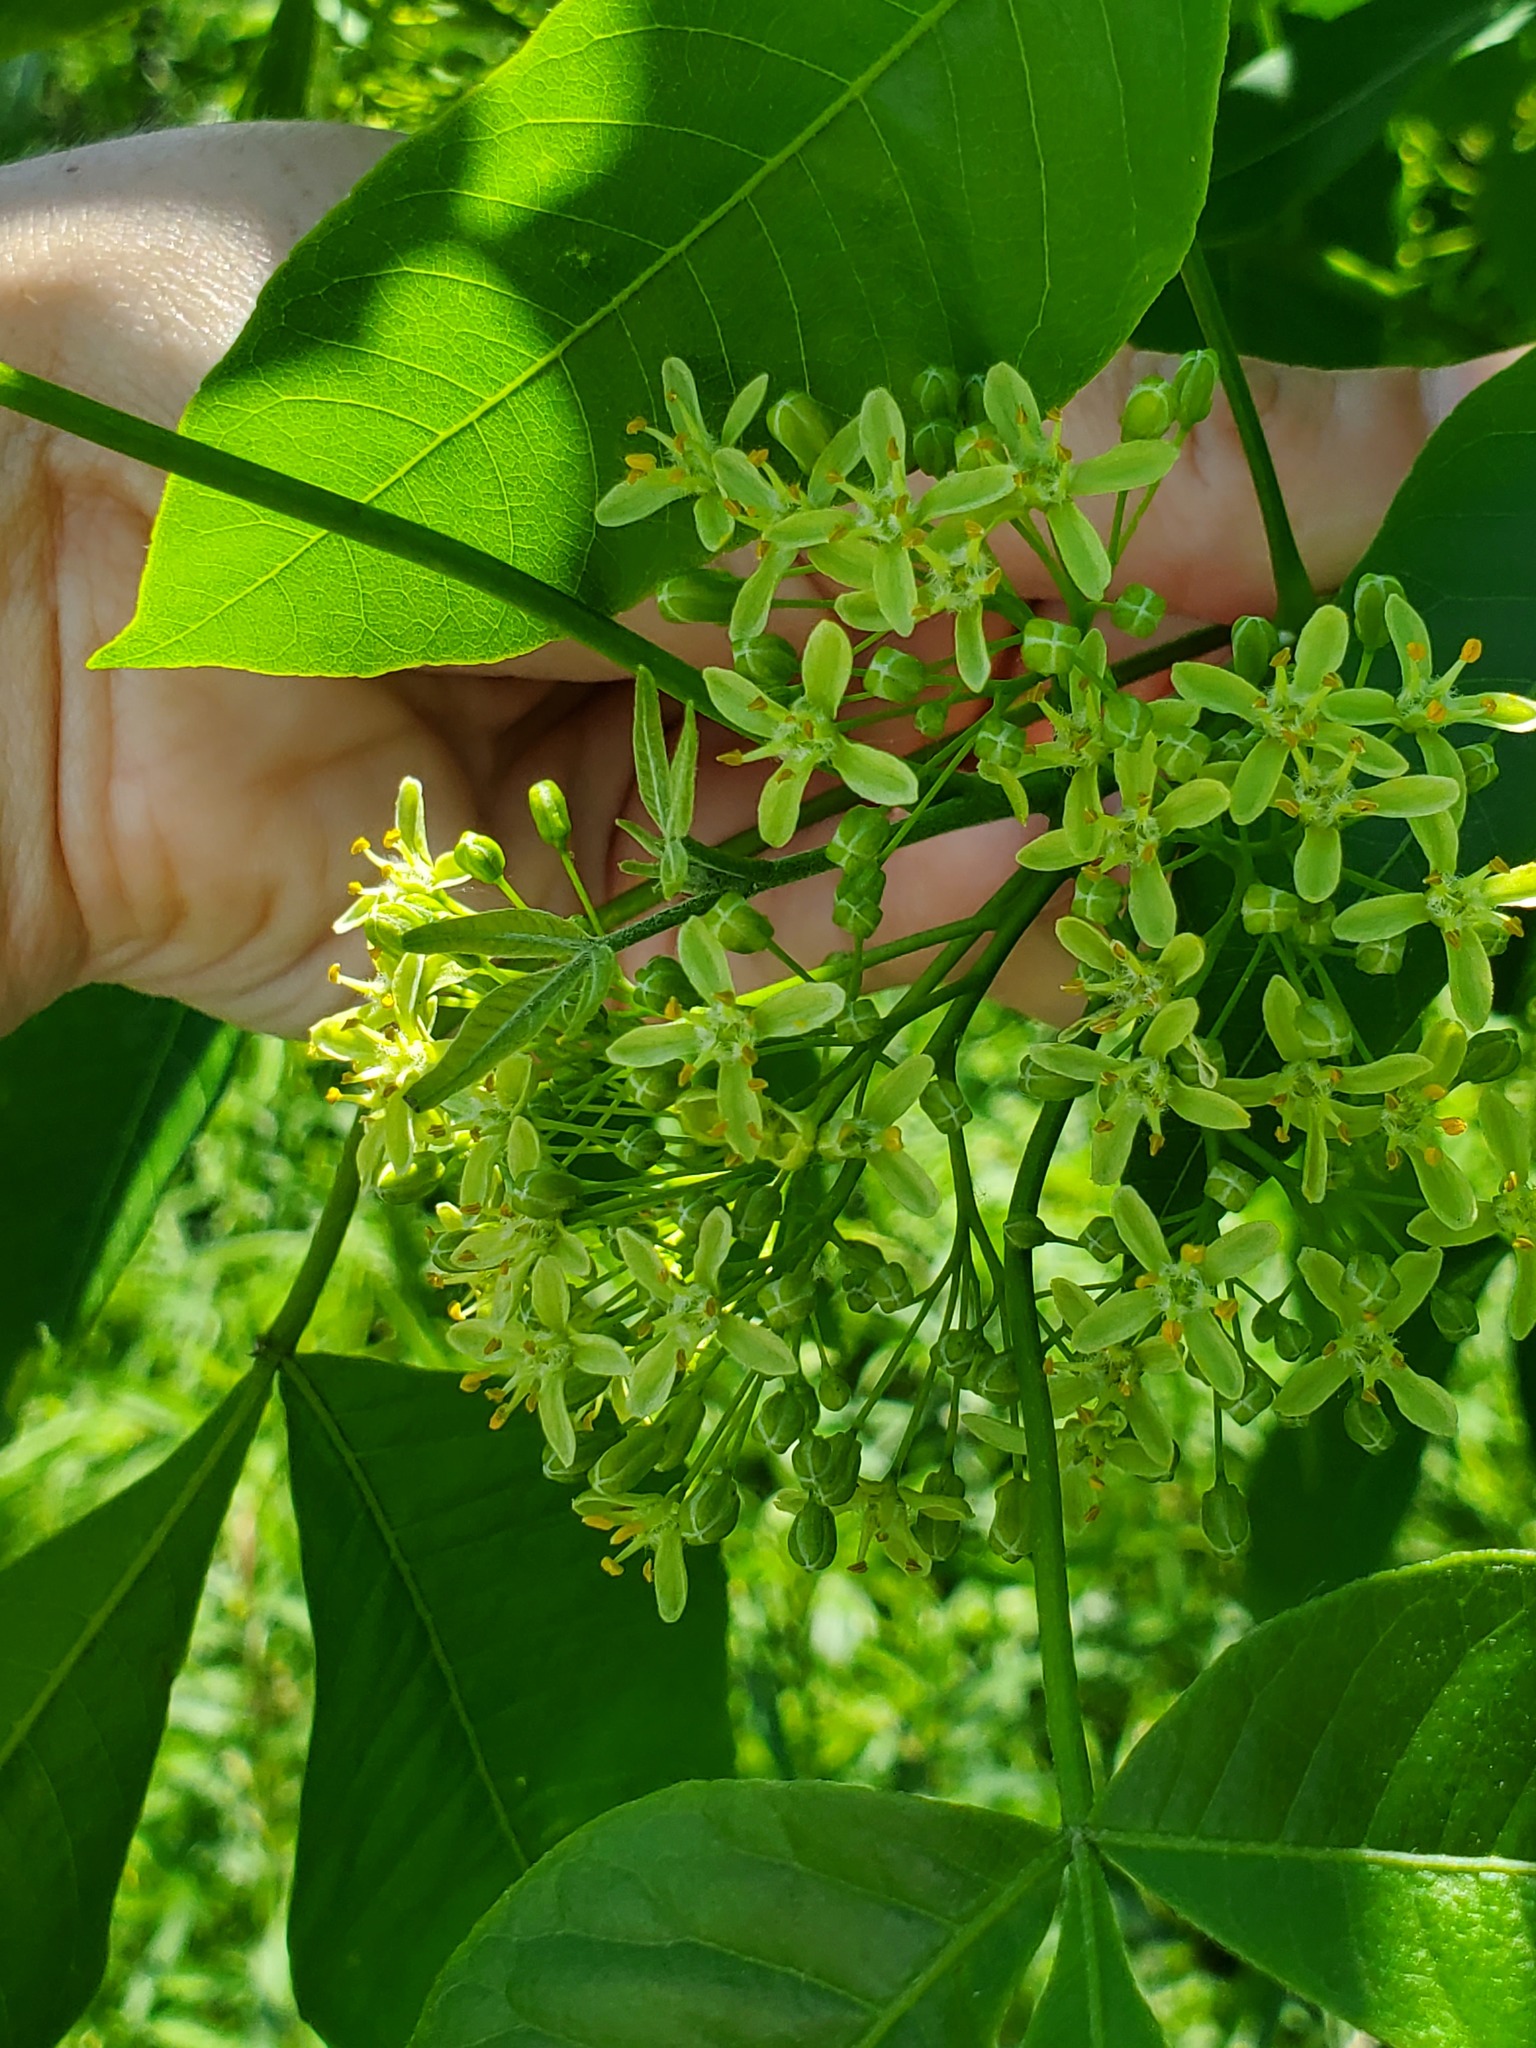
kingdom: Plantae
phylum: Tracheophyta
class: Magnoliopsida
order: Sapindales
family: Rutaceae
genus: Ptelea
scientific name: Ptelea trifoliata
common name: Common hop-tree
